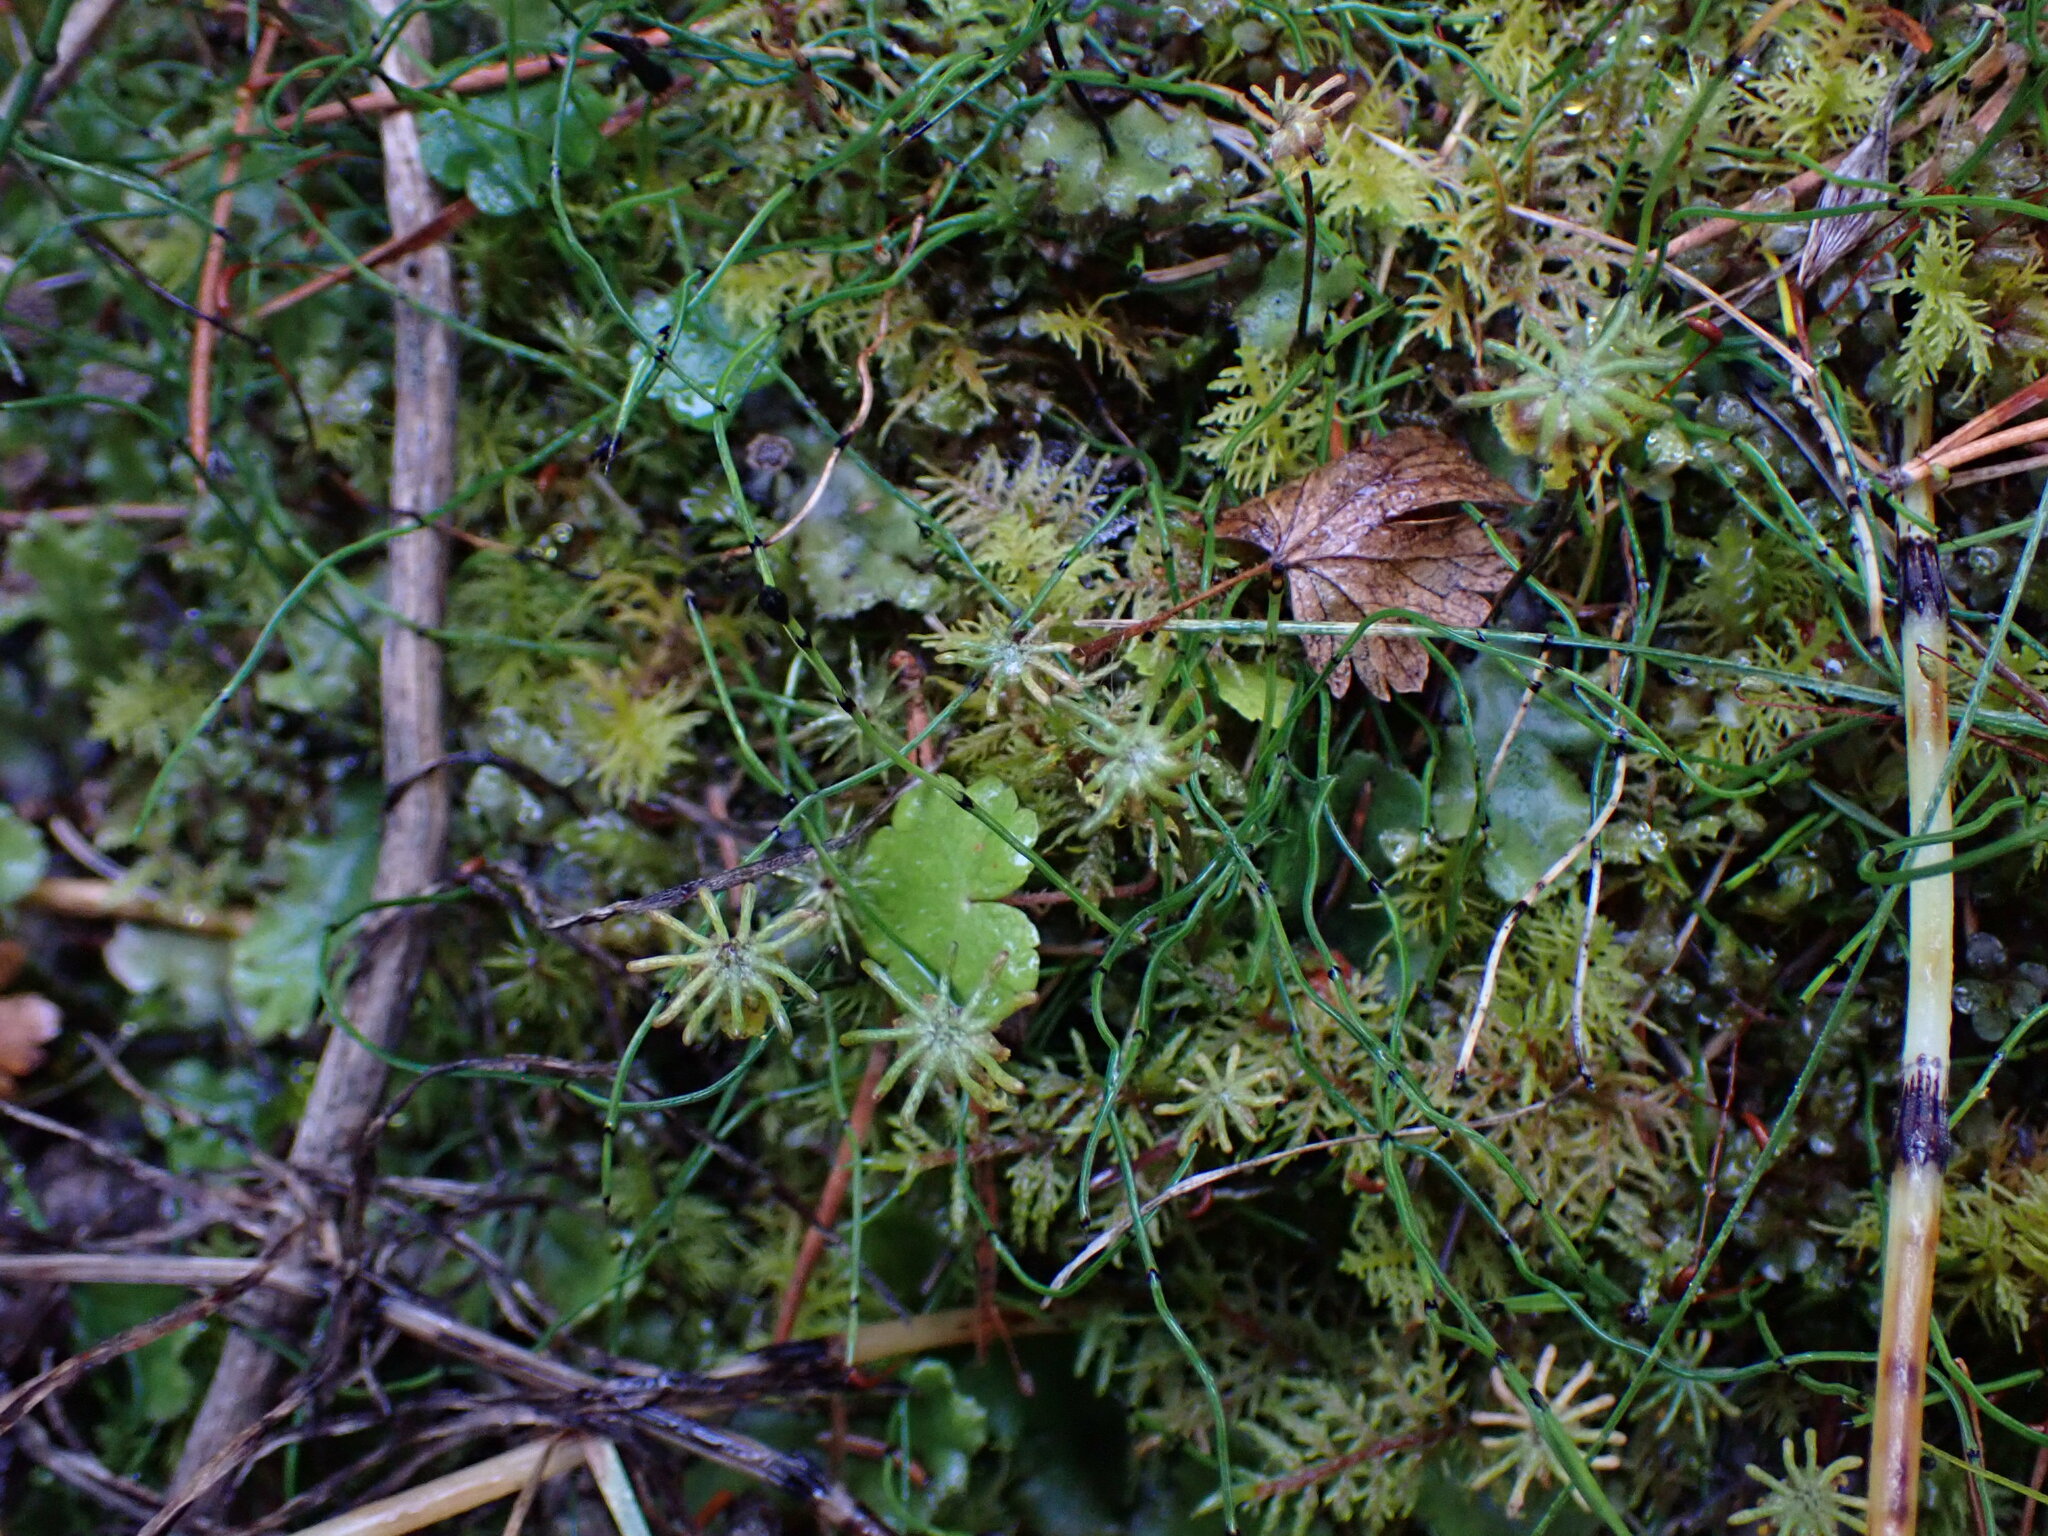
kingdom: Plantae
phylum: Marchantiophyta
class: Marchantiopsida
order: Marchantiales
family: Marchantiaceae
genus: Marchantia
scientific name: Marchantia polymorpha
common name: Common liverwort
